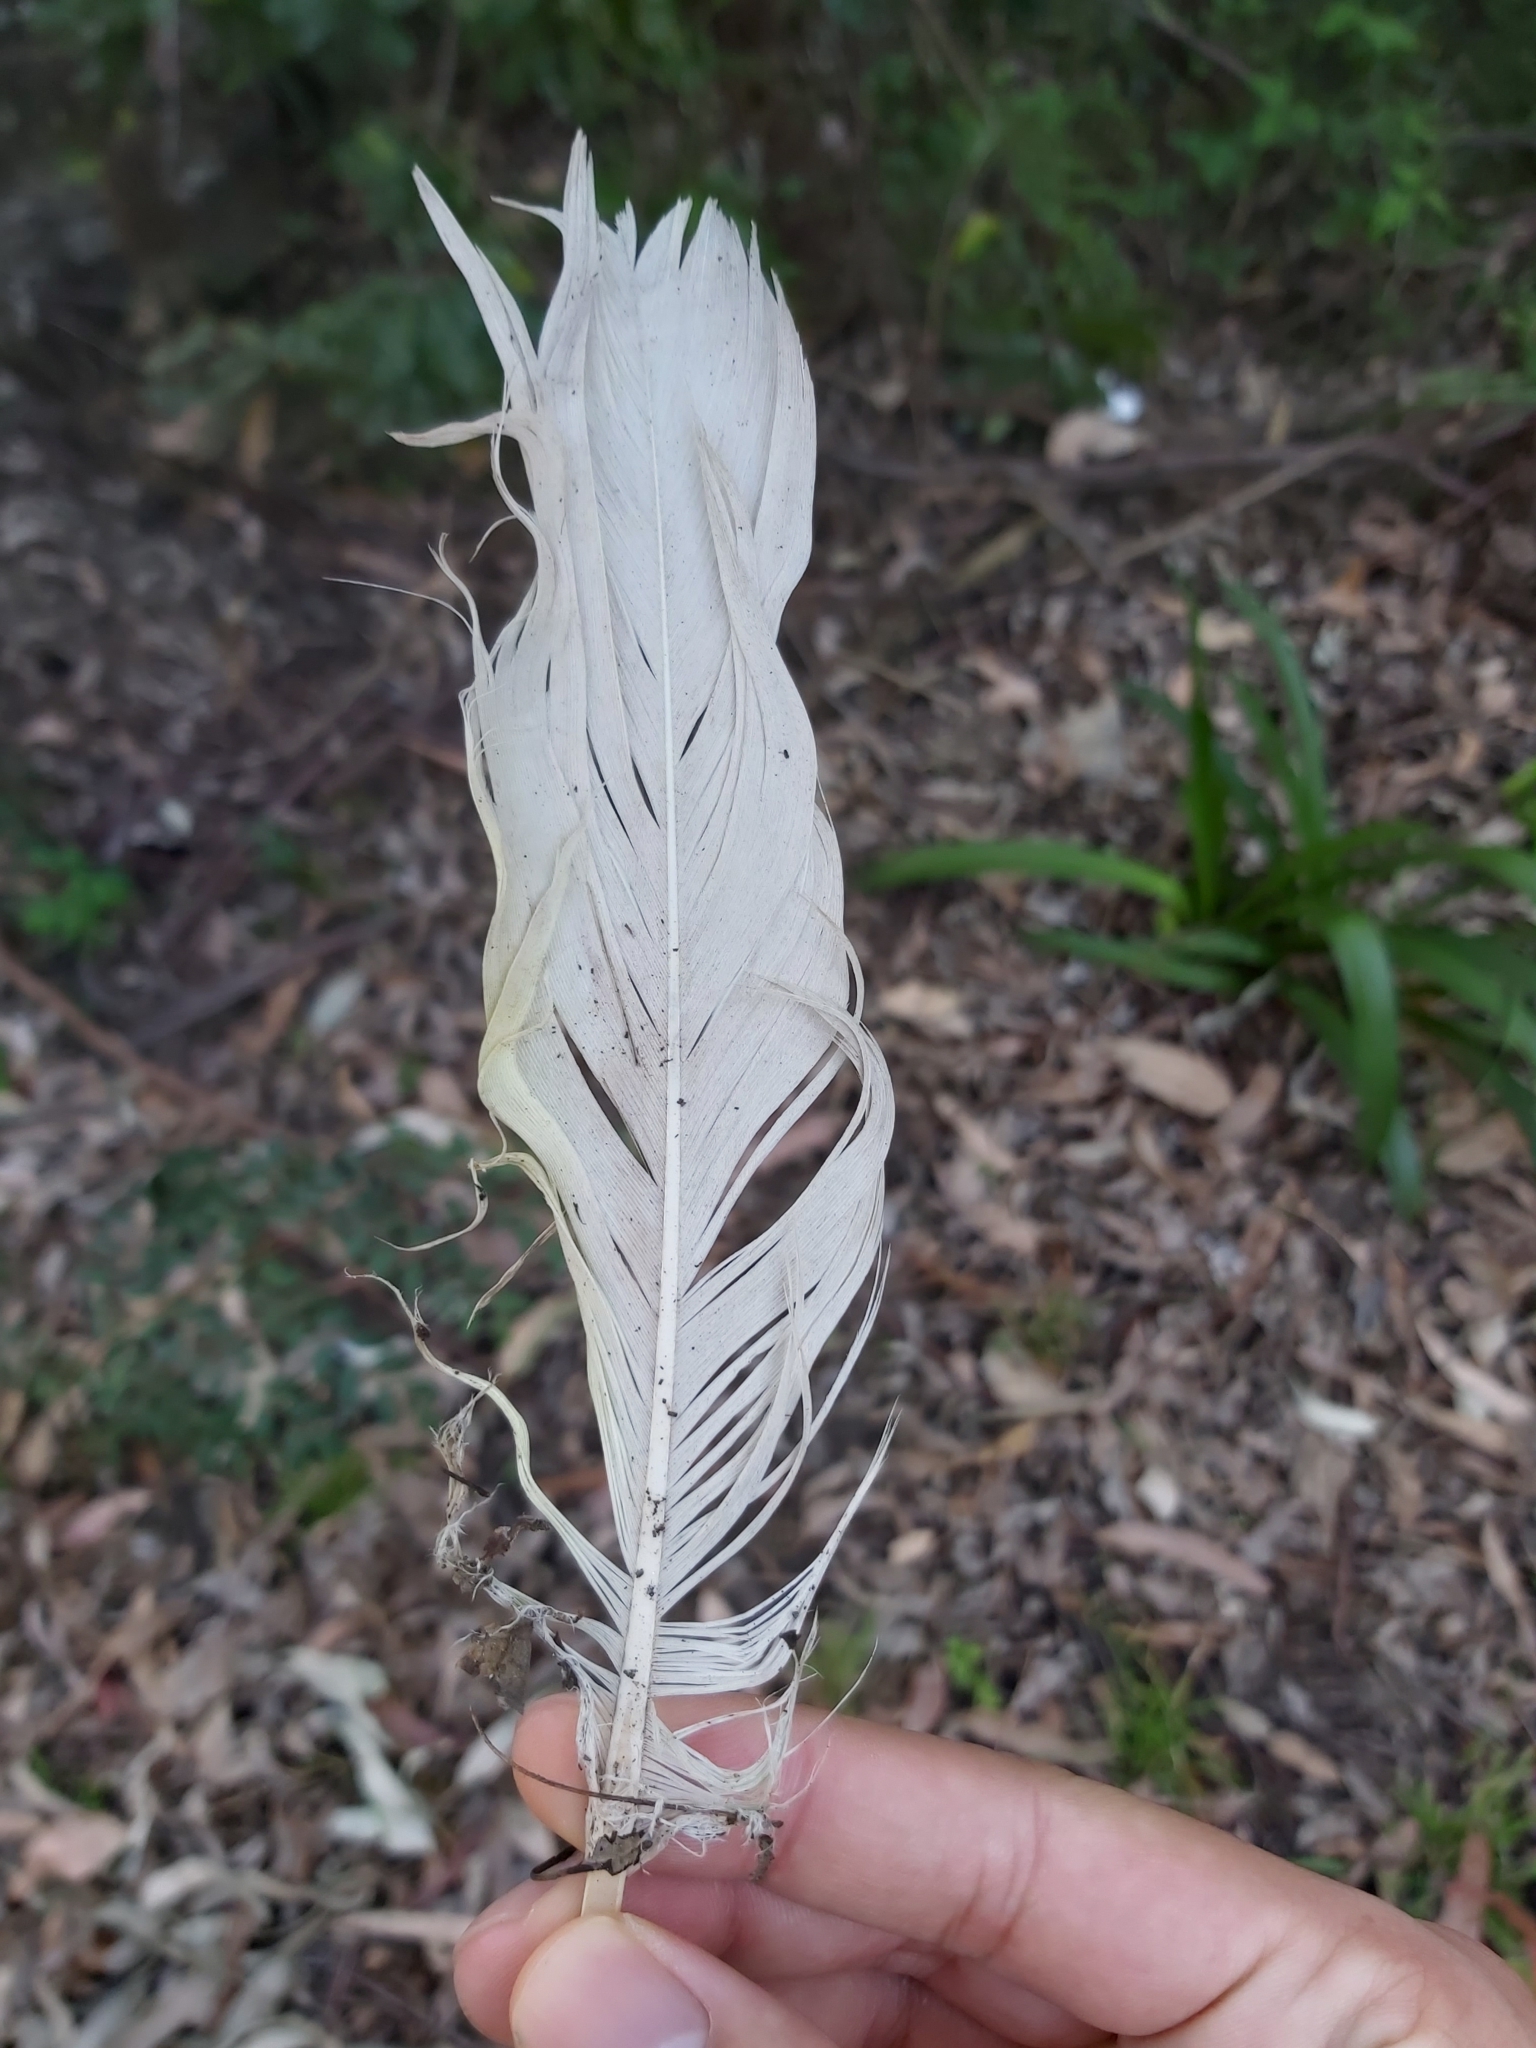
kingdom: Animalia
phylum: Chordata
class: Aves
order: Psittaciformes
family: Psittacidae
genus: Cacatua
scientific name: Cacatua galerita
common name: Sulphur-crested cockatoo
